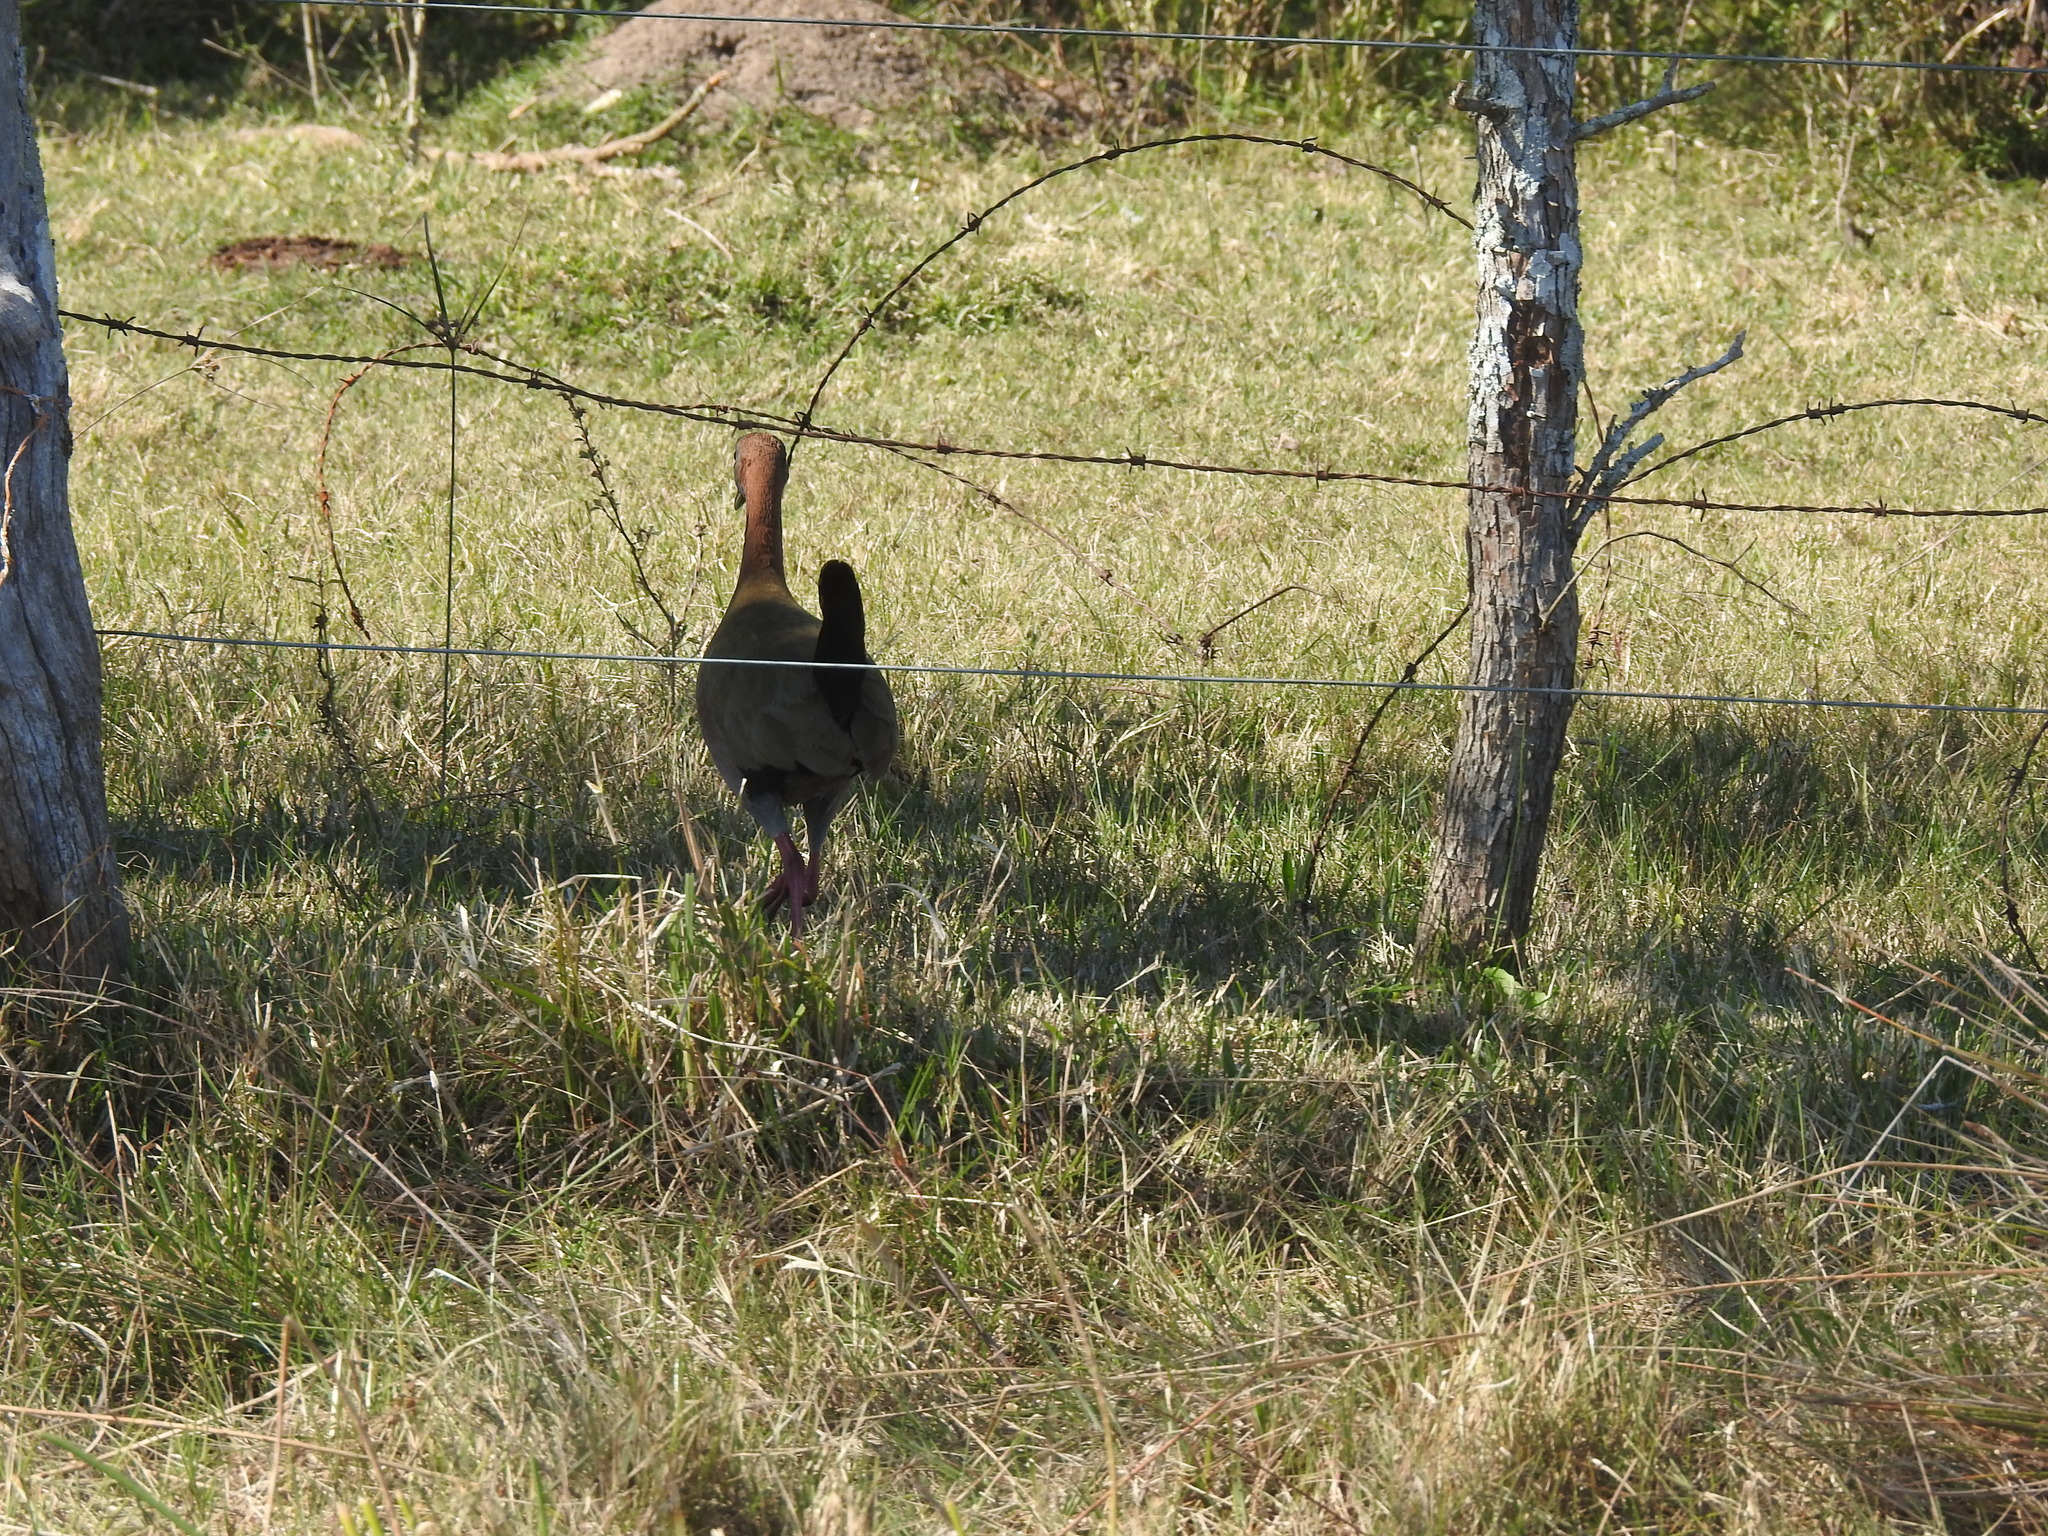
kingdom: Animalia
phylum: Chordata
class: Aves
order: Gruiformes
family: Rallidae
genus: Aramides
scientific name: Aramides ypecaha
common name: Giant wood rail
